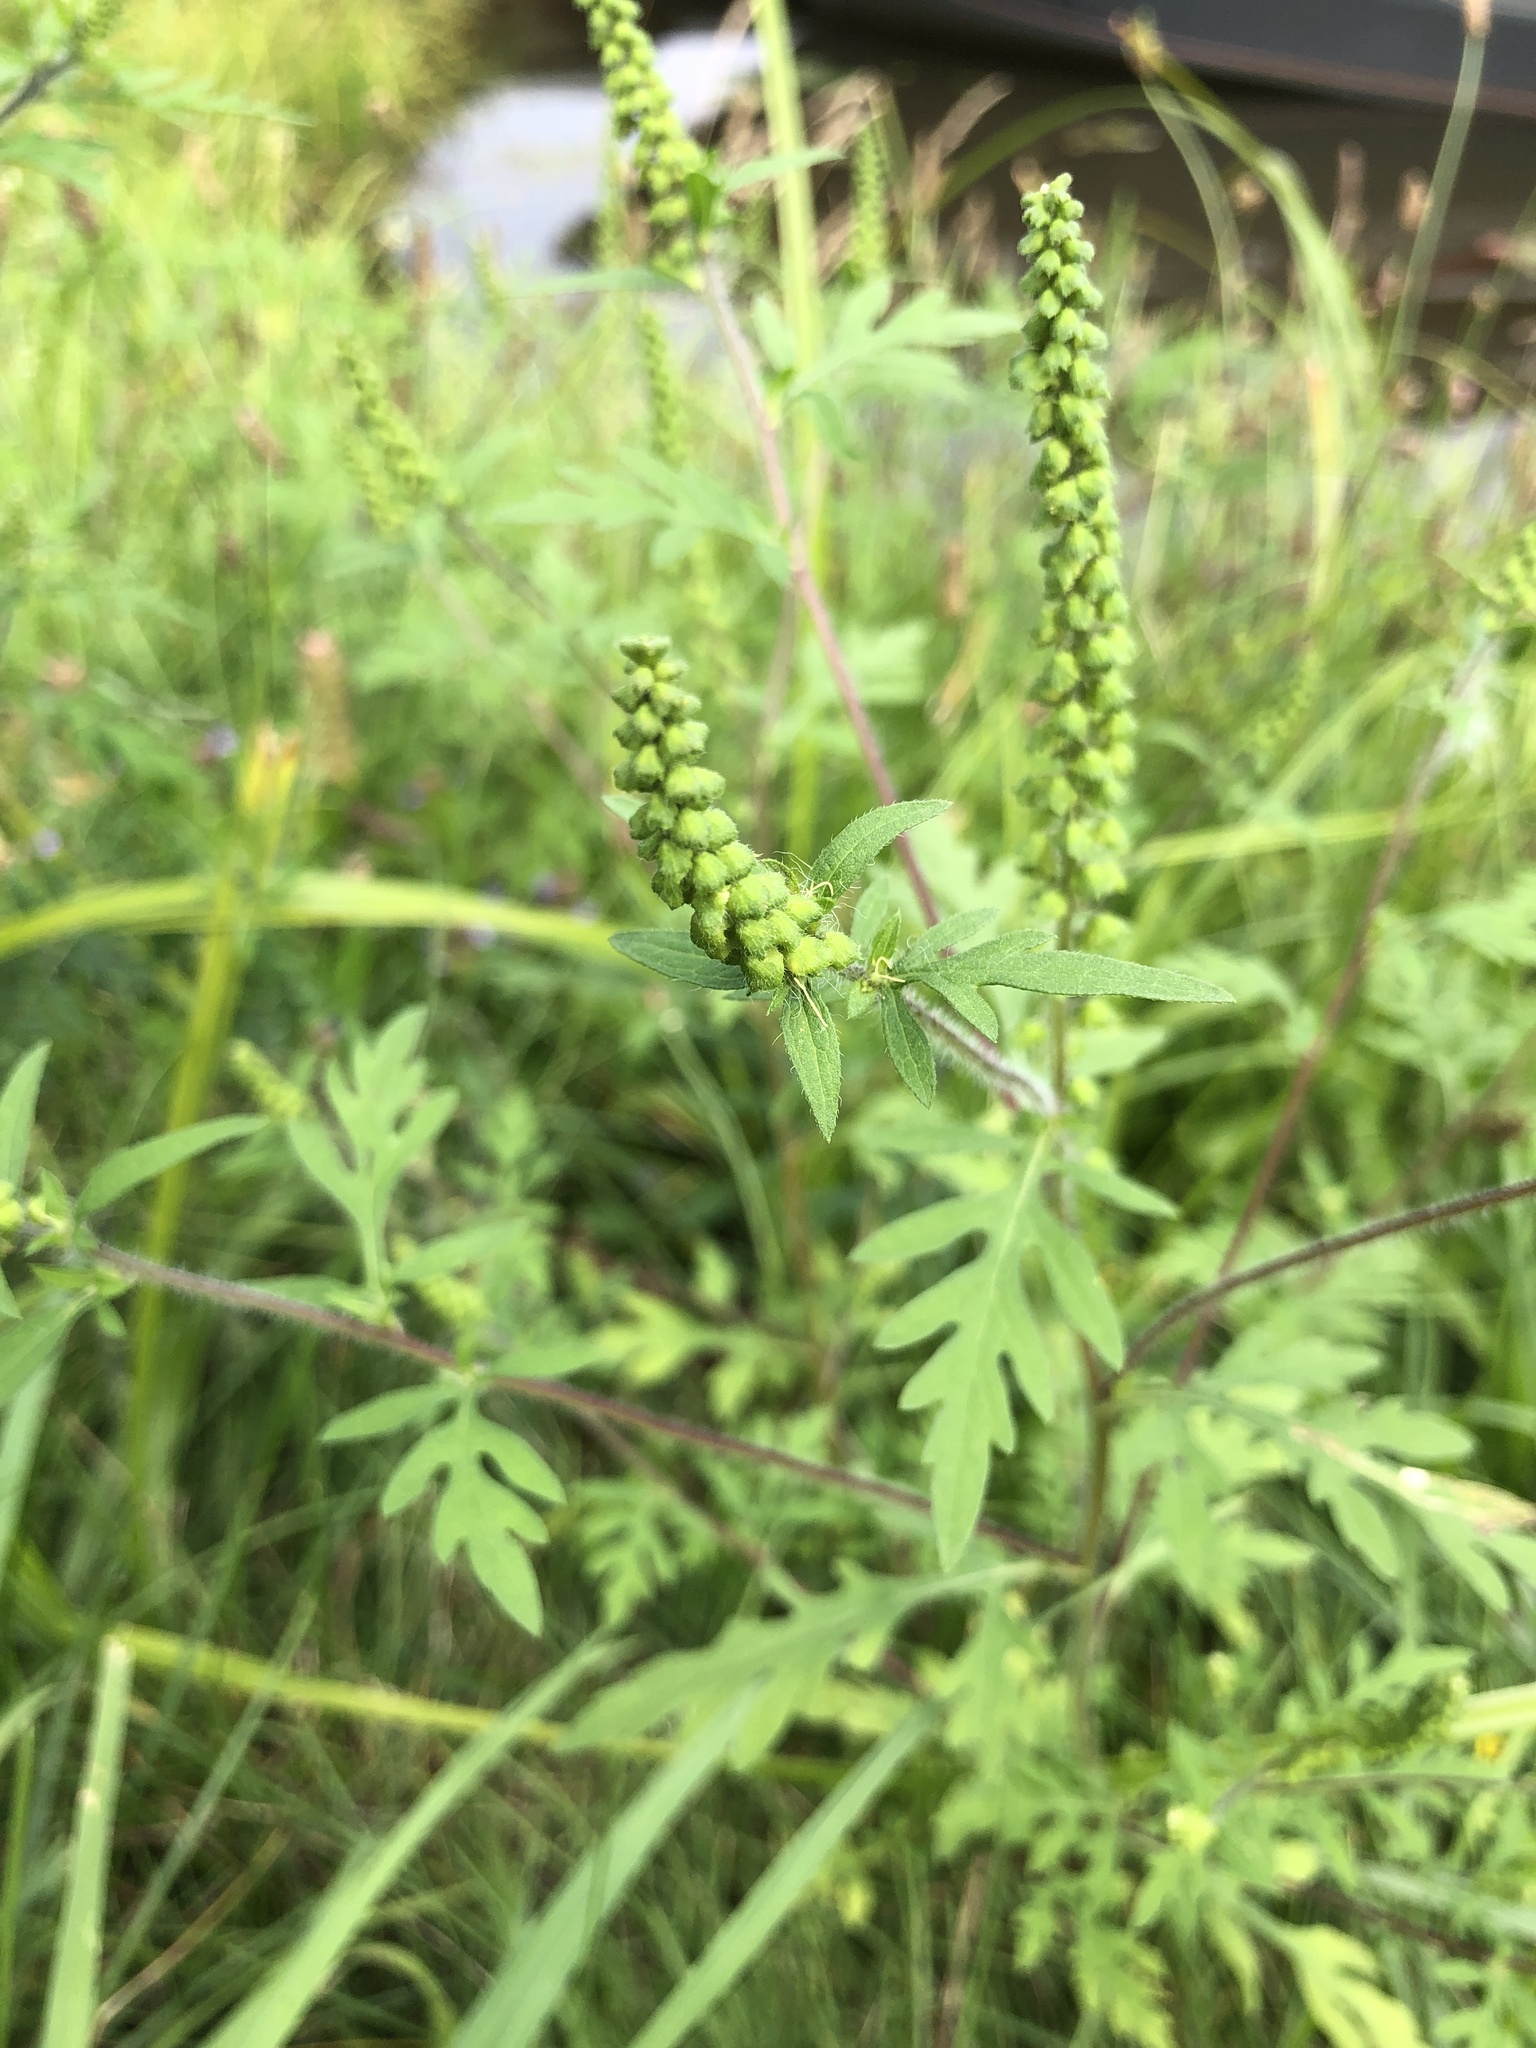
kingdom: Plantae
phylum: Tracheophyta
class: Magnoliopsida
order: Asterales
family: Asteraceae
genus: Ambrosia
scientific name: Ambrosia artemisiifolia
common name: Annual ragweed
